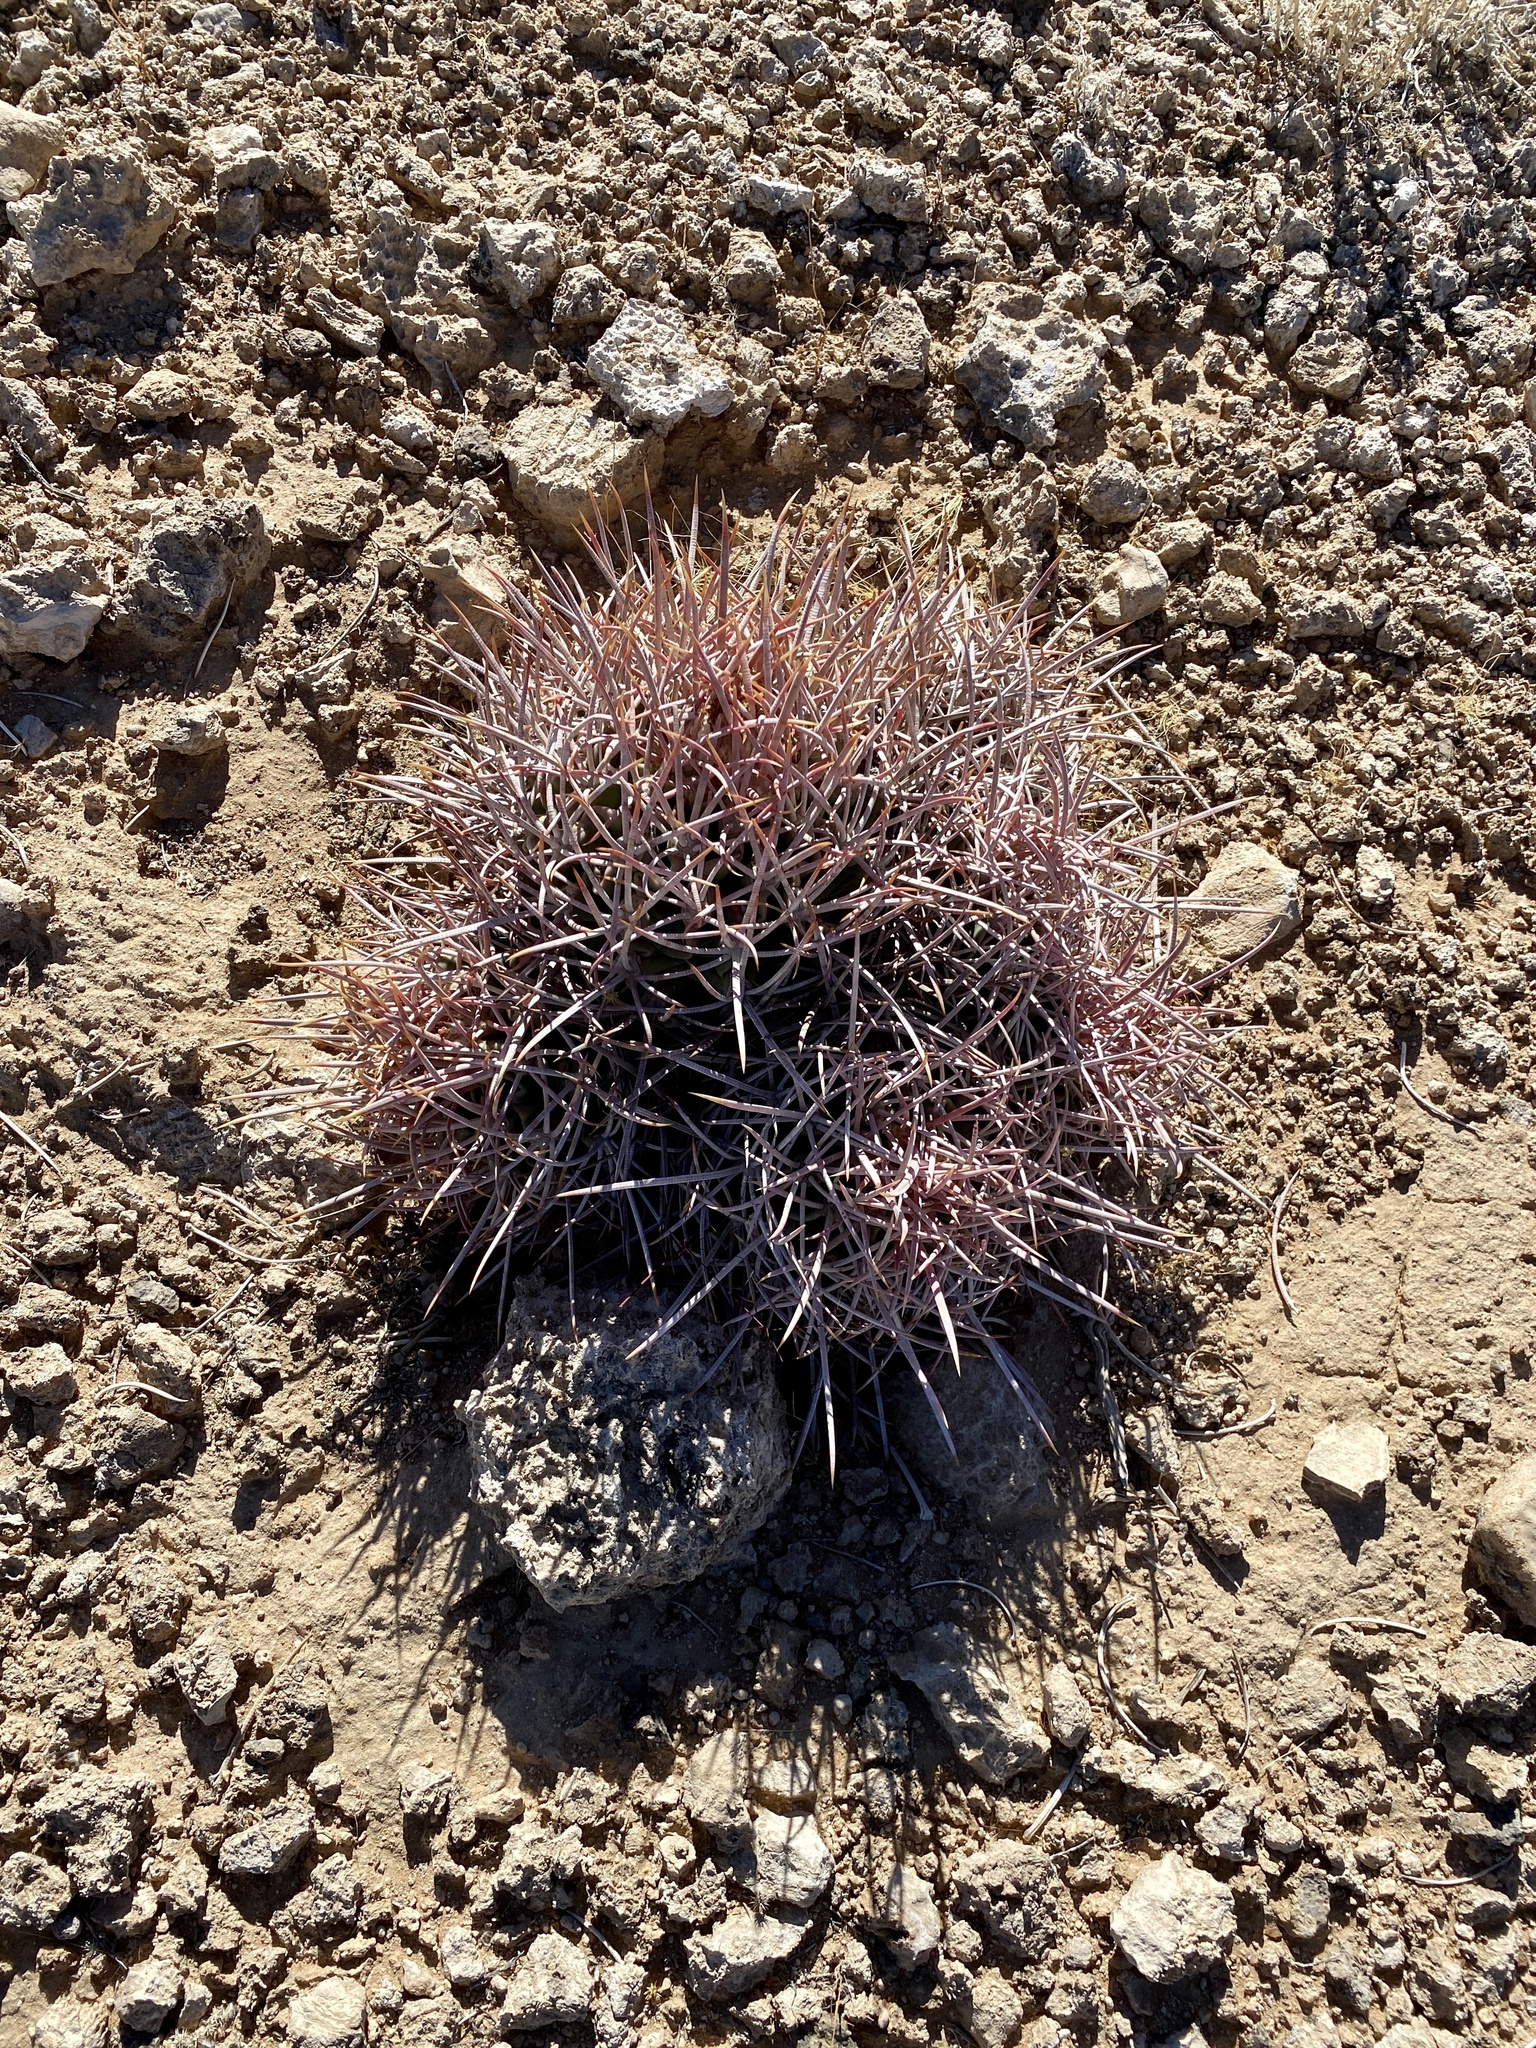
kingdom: Plantae
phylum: Tracheophyta
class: Magnoliopsida
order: Caryophyllales
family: Cactaceae
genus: Echinocactus
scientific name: Echinocactus polycephalus
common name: Cottontop cactus
